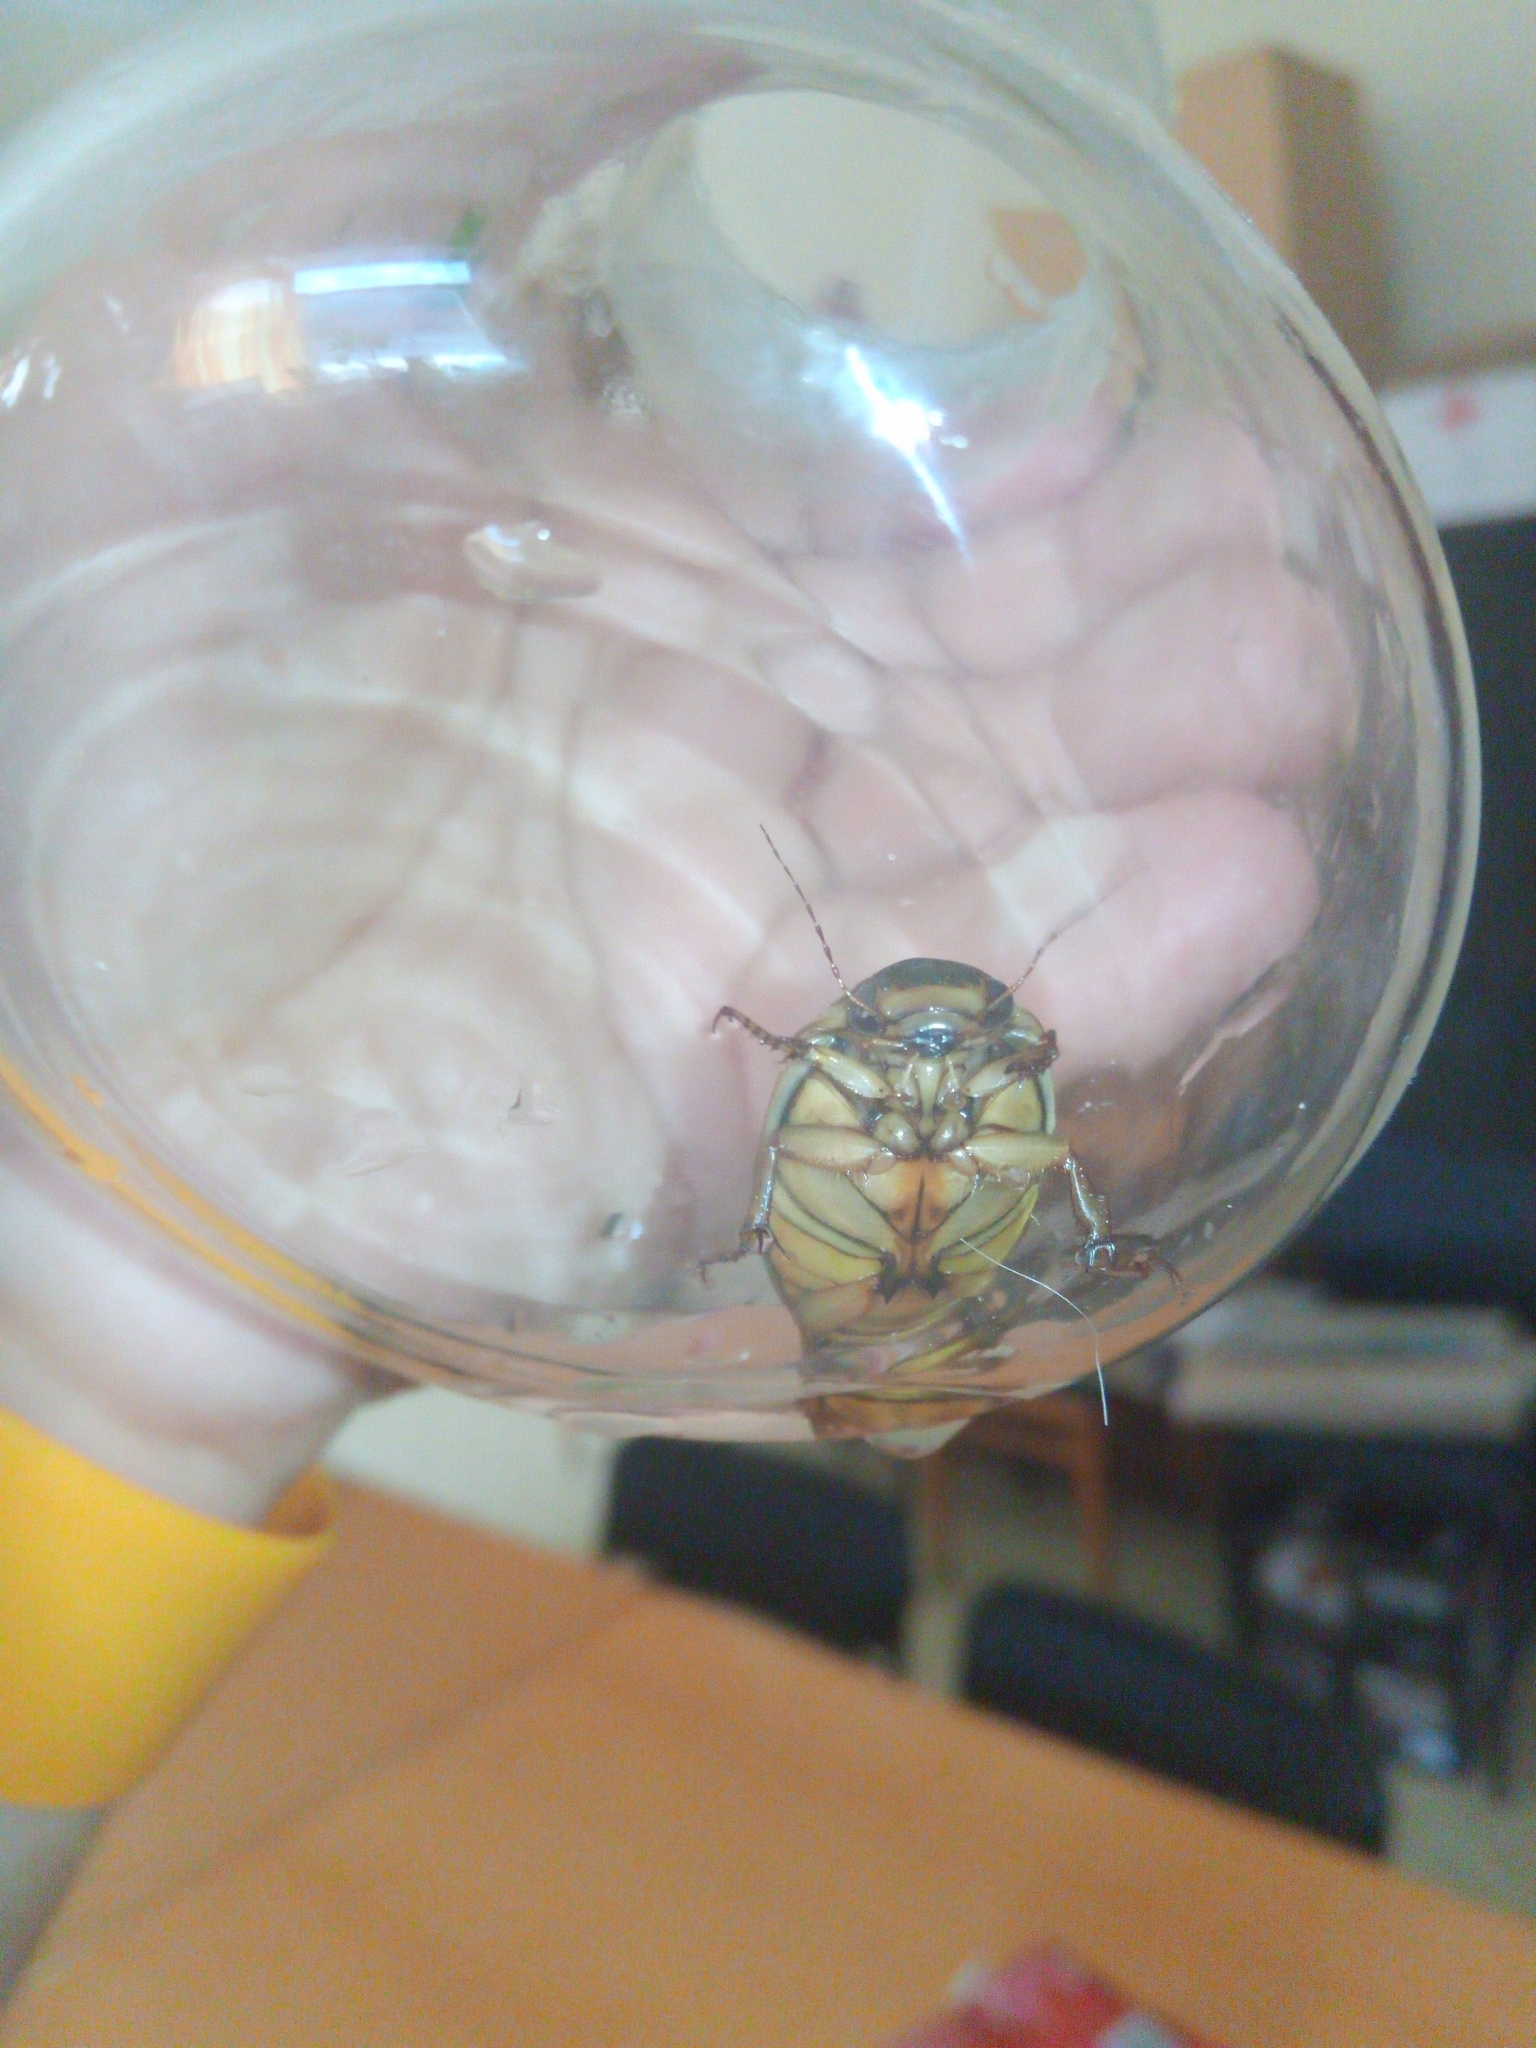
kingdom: Animalia
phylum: Arthropoda
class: Insecta
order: Coleoptera
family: Dytiscidae
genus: Dytiscus
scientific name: Dytiscus circumcinctus
